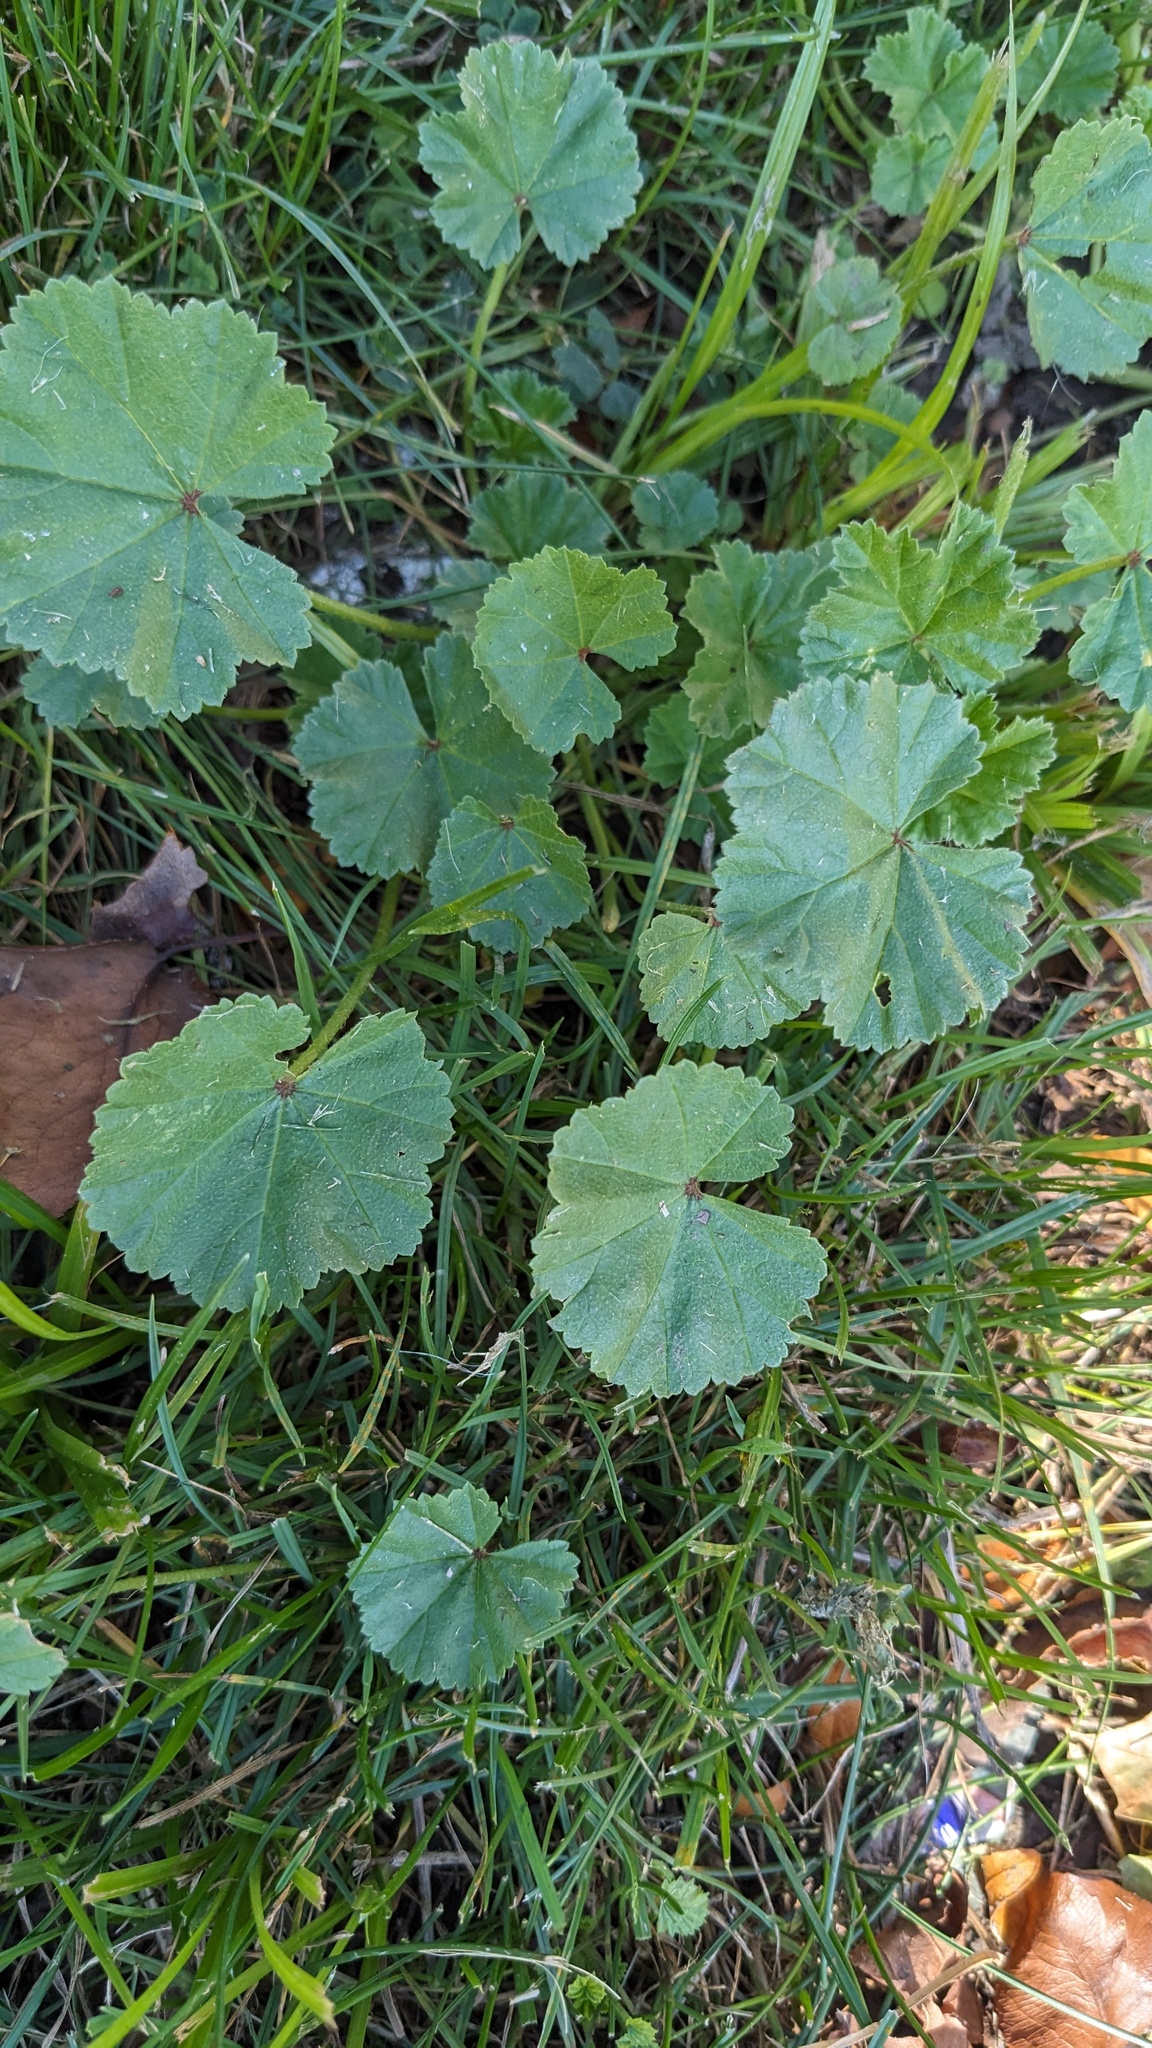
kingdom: Plantae
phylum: Tracheophyta
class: Magnoliopsida
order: Malvales
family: Malvaceae
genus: Malva
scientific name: Malva neglecta
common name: Common mallow
